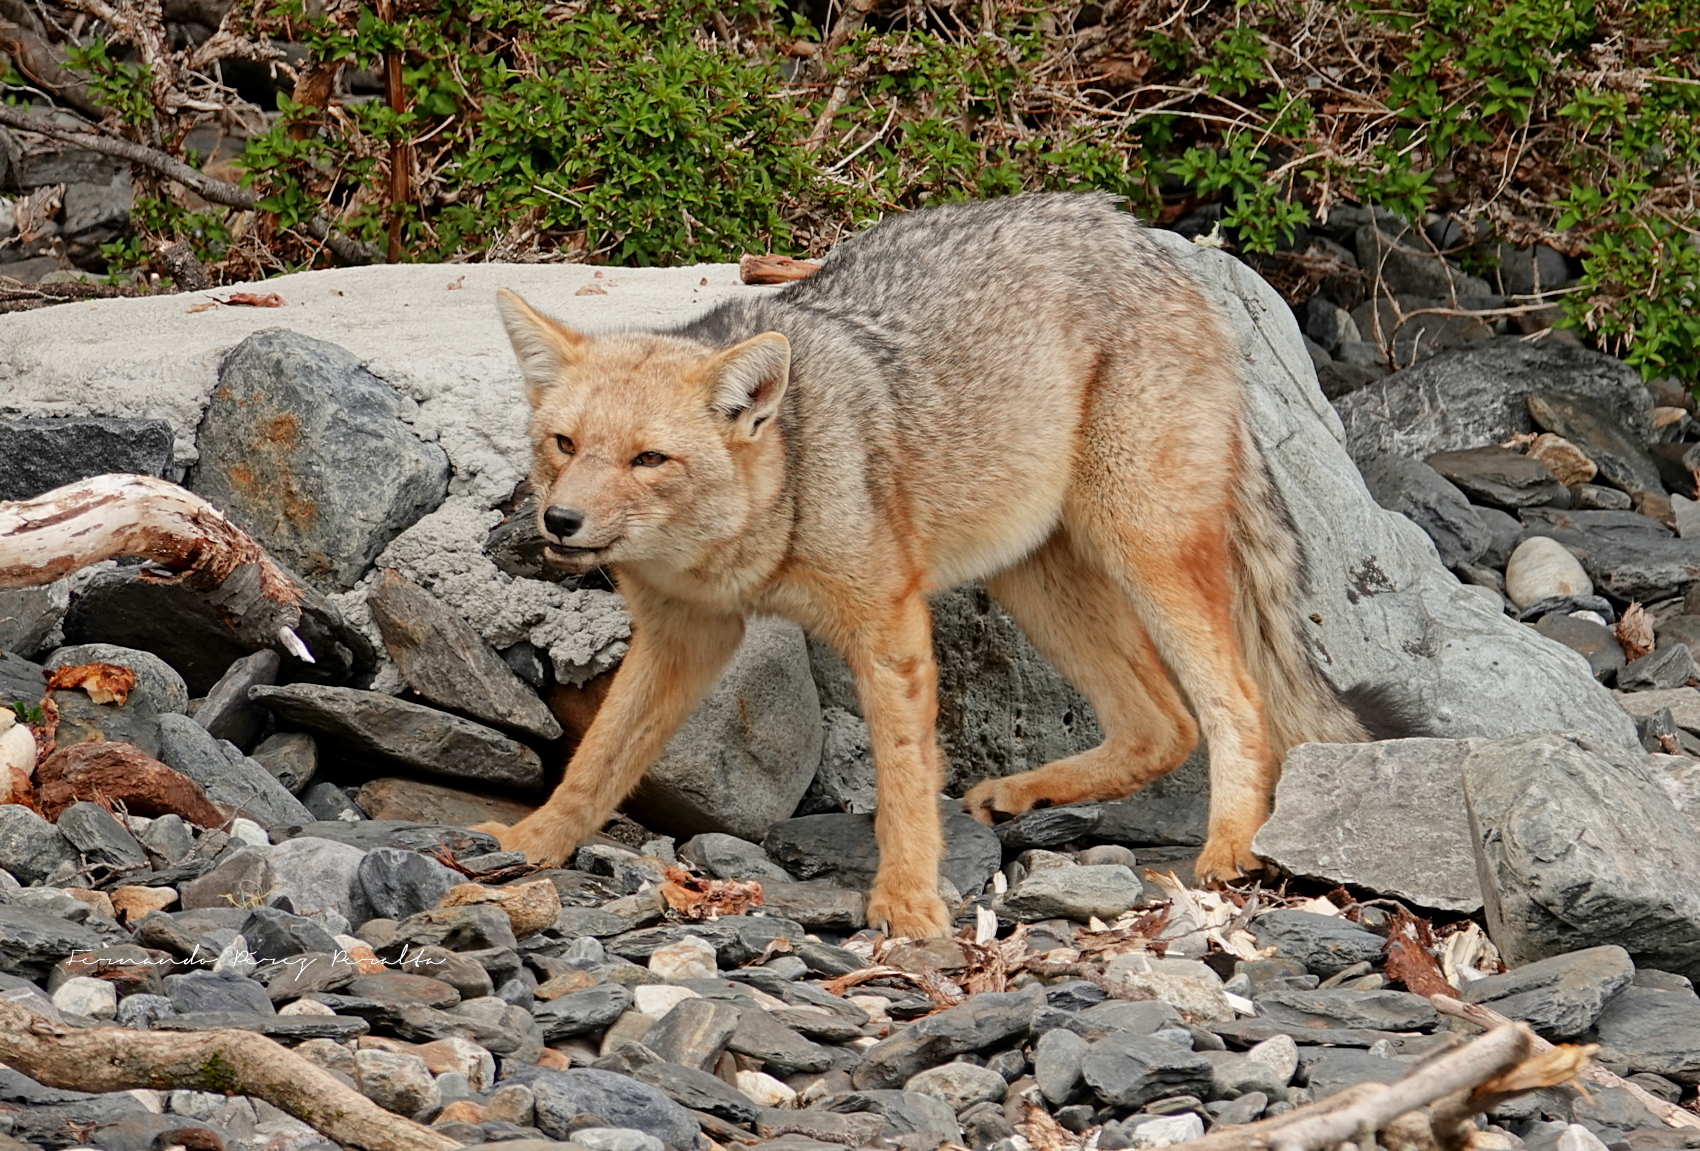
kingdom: Animalia
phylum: Chordata
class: Mammalia
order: Carnivora
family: Canidae
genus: Lycalopex
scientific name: Lycalopex culpaeus
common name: Culpeo
